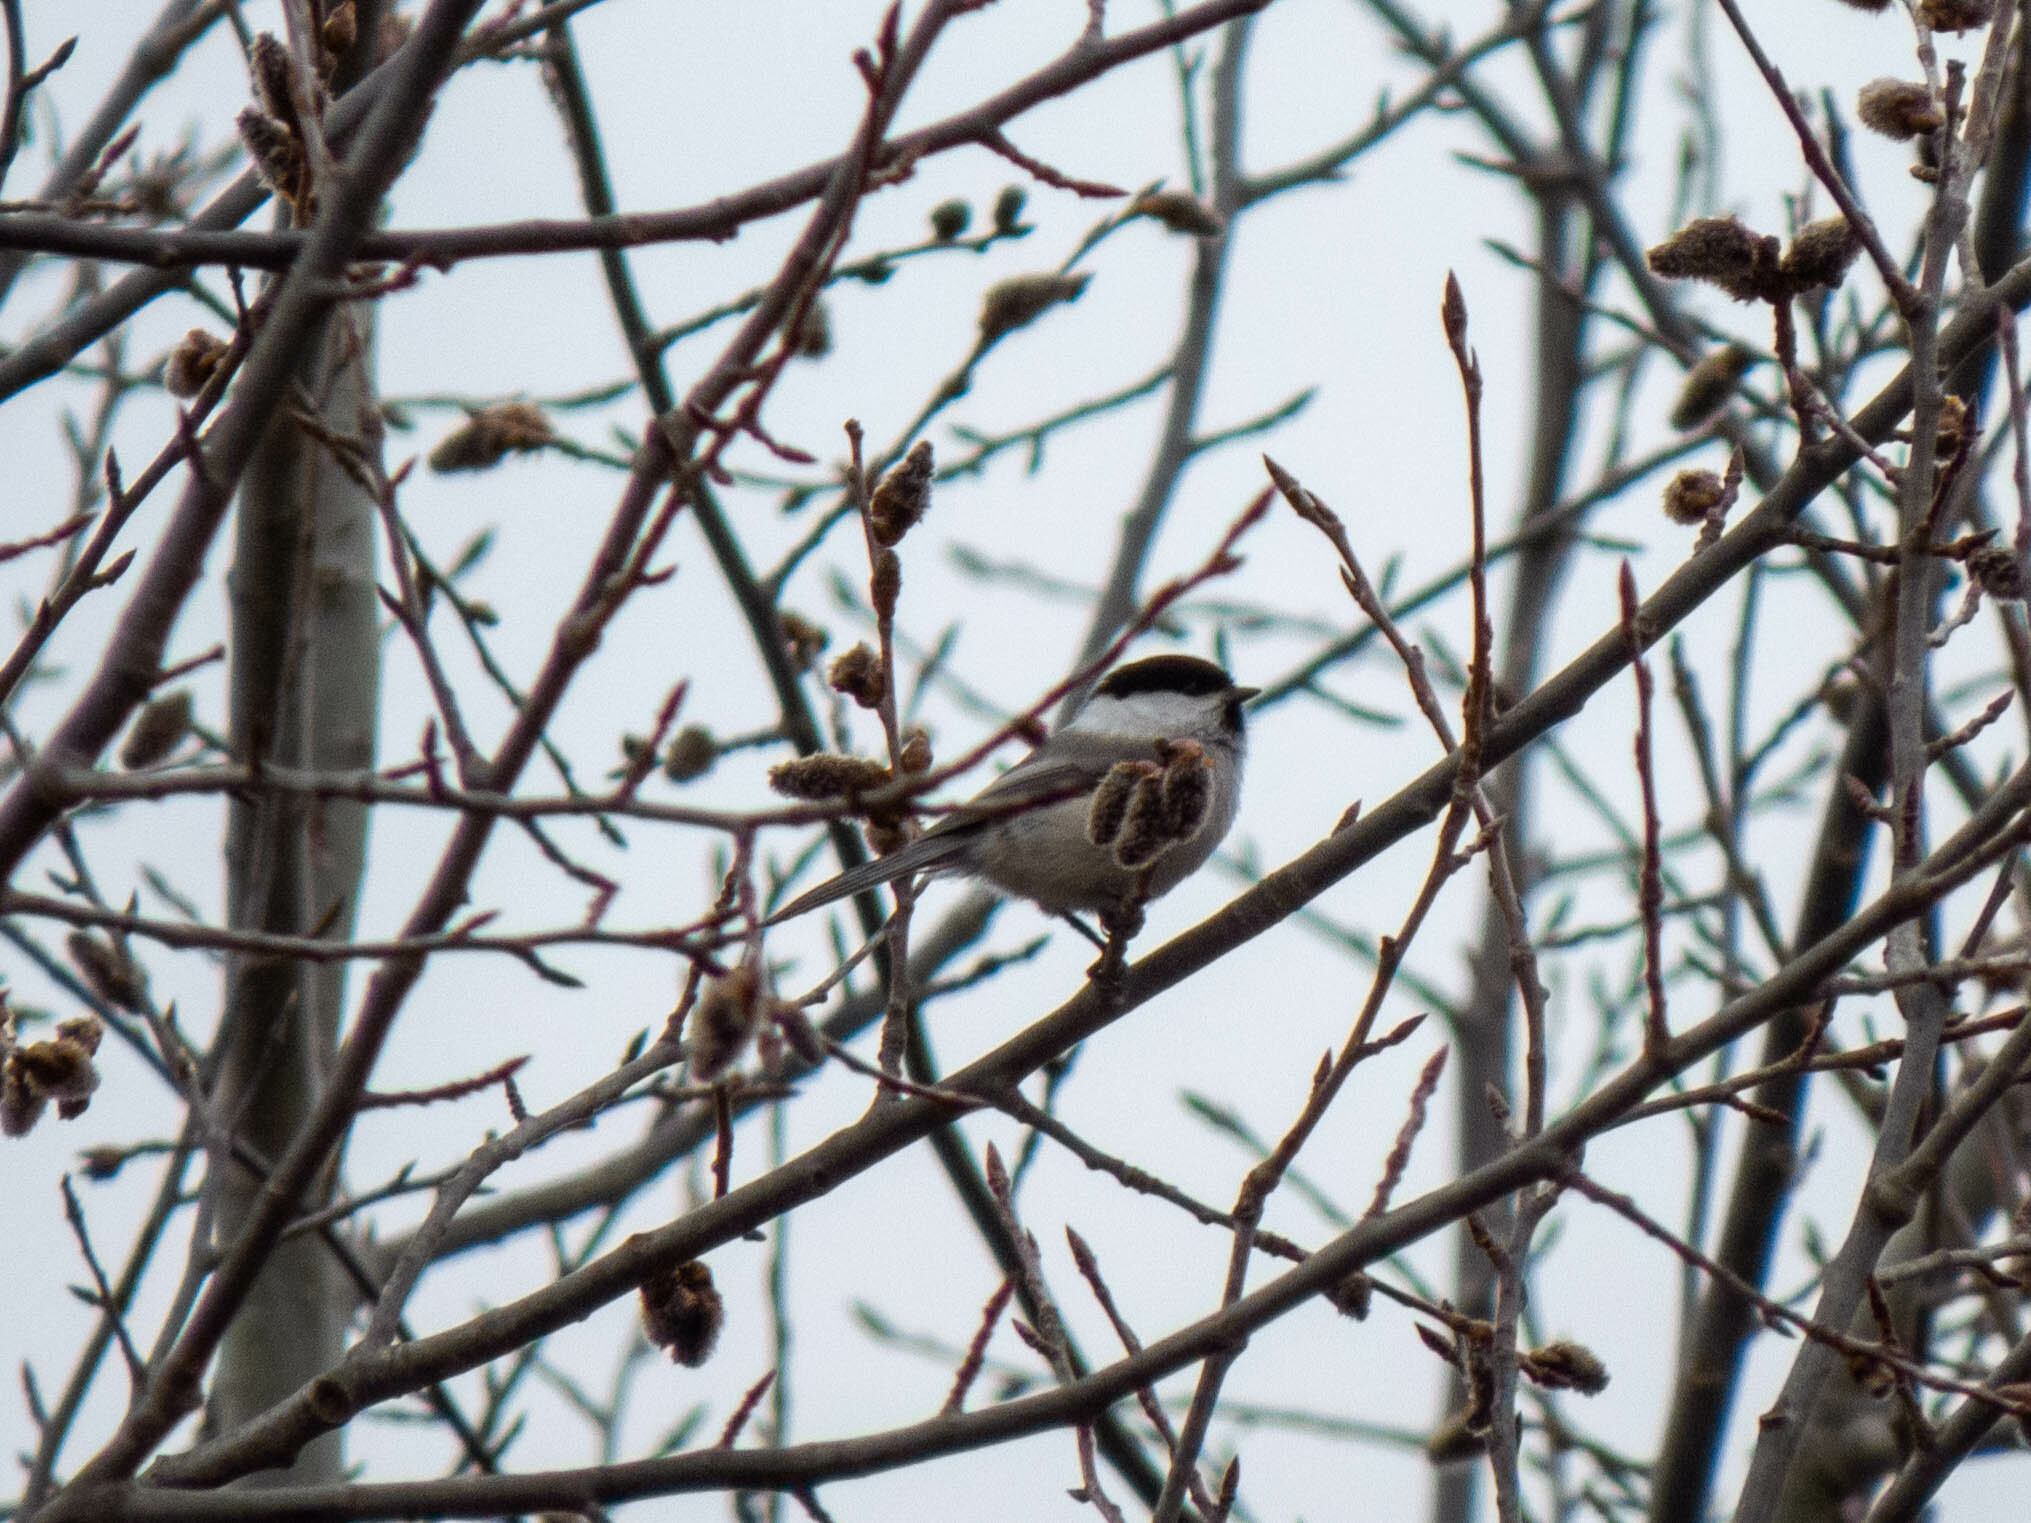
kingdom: Animalia
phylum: Chordata
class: Aves
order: Passeriformes
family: Paridae
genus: Poecile
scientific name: Poecile montanus
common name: Willow tit
